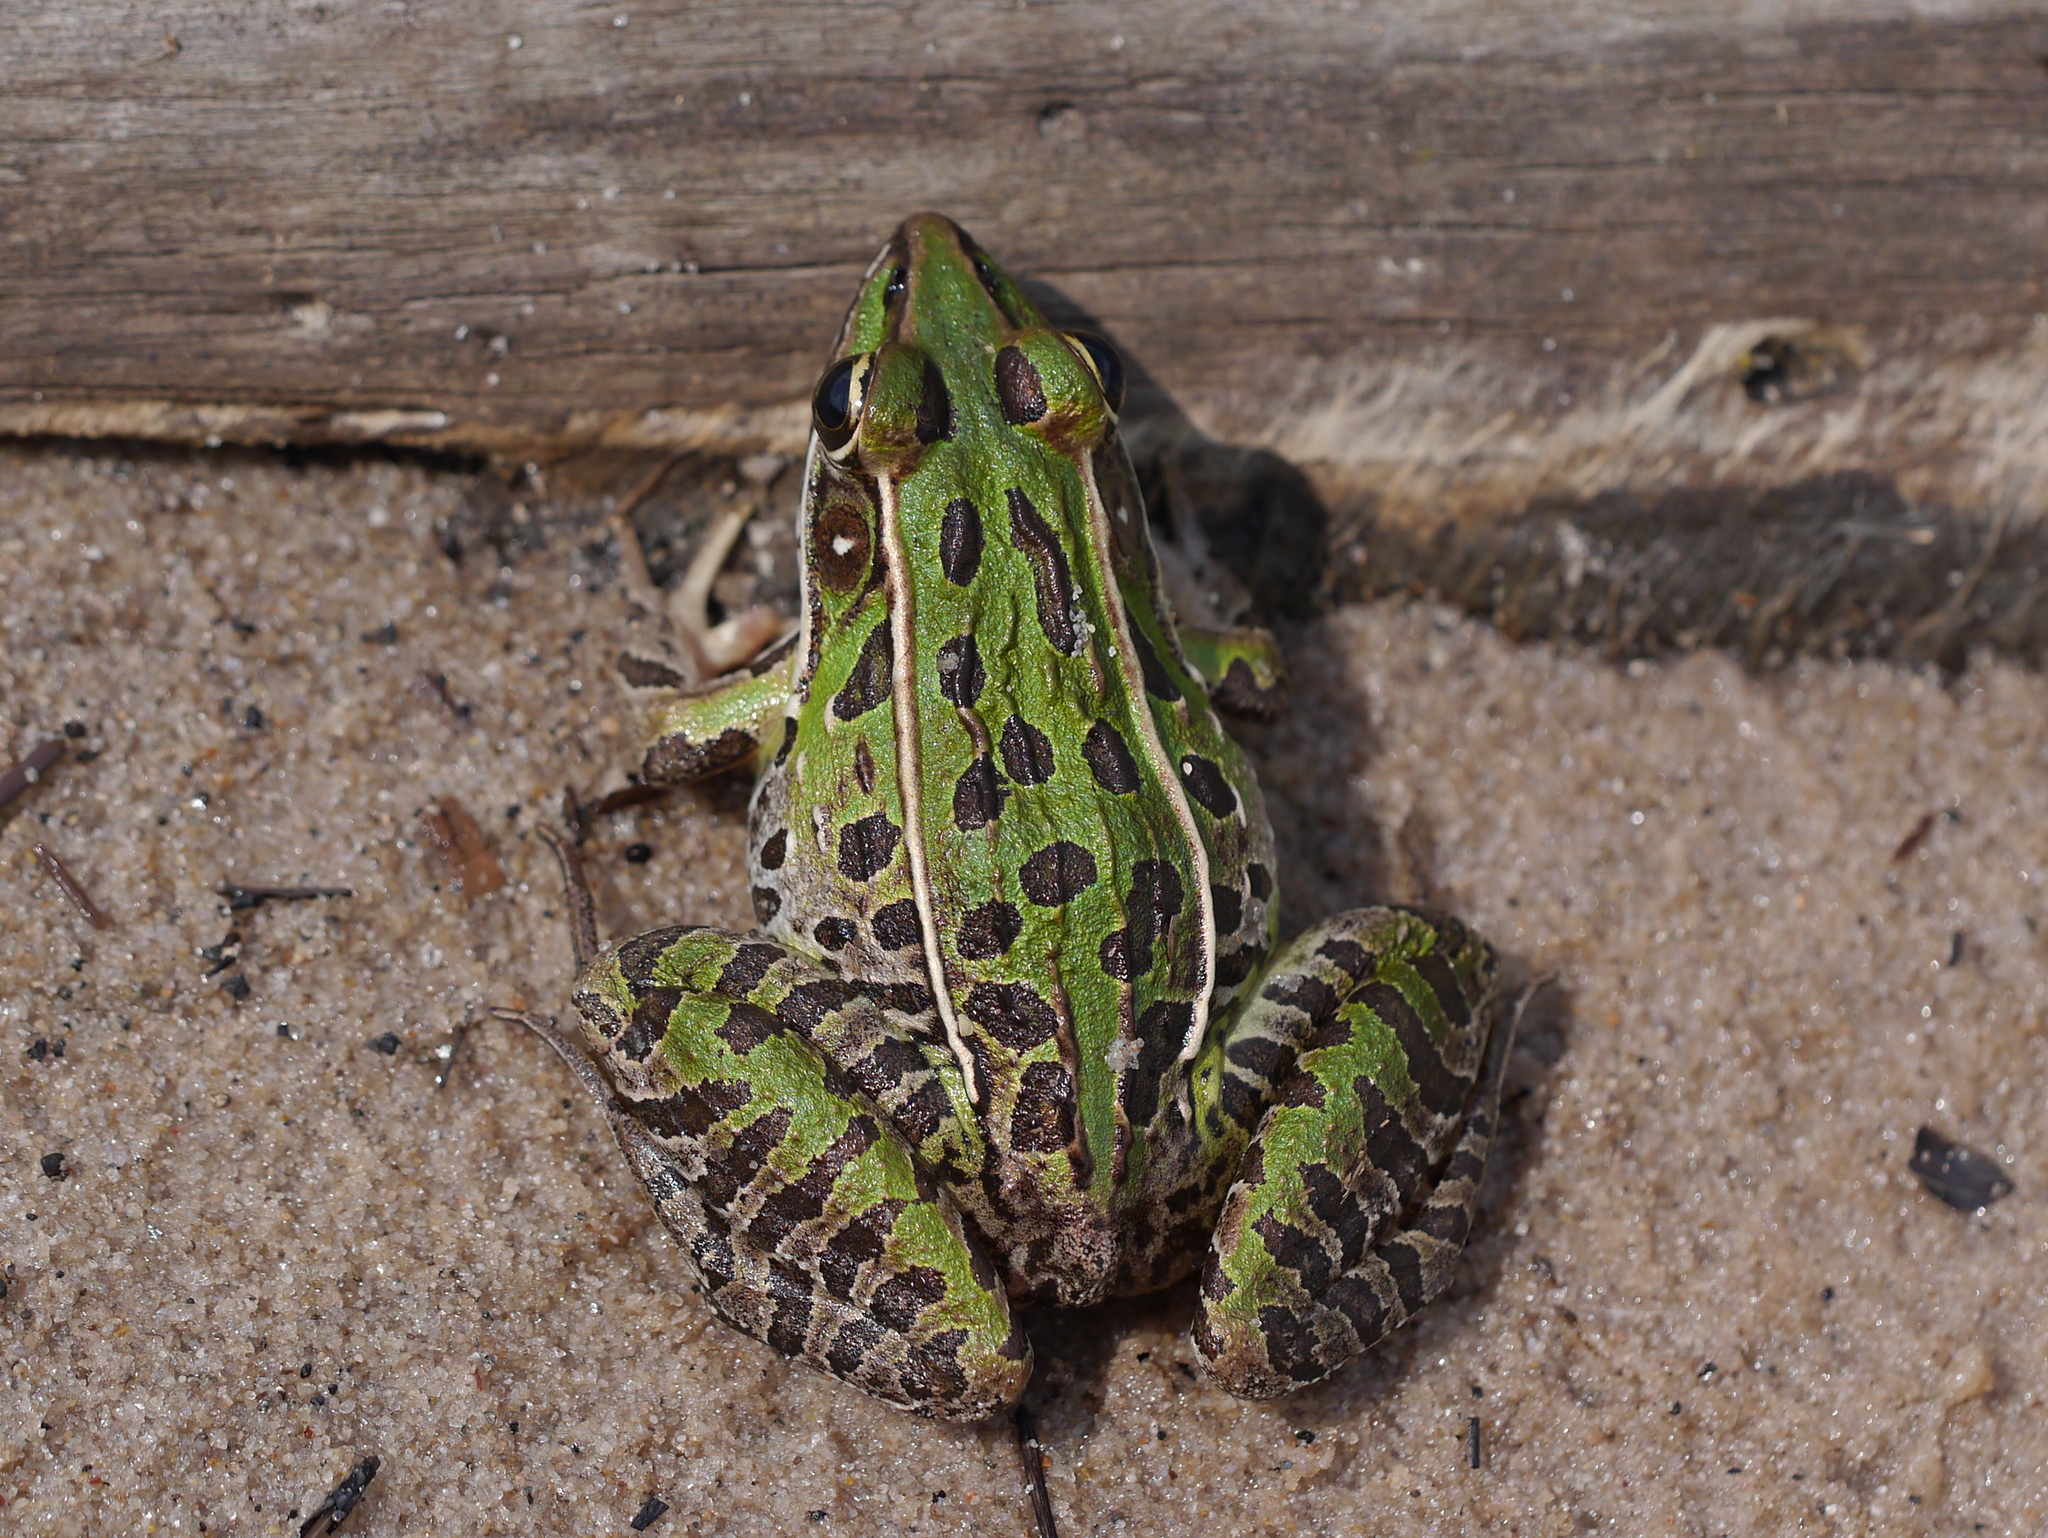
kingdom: Animalia
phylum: Chordata
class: Amphibia
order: Anura
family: Ranidae
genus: Lithobates
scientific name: Lithobates sphenocephalus
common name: Southern leopard frog
